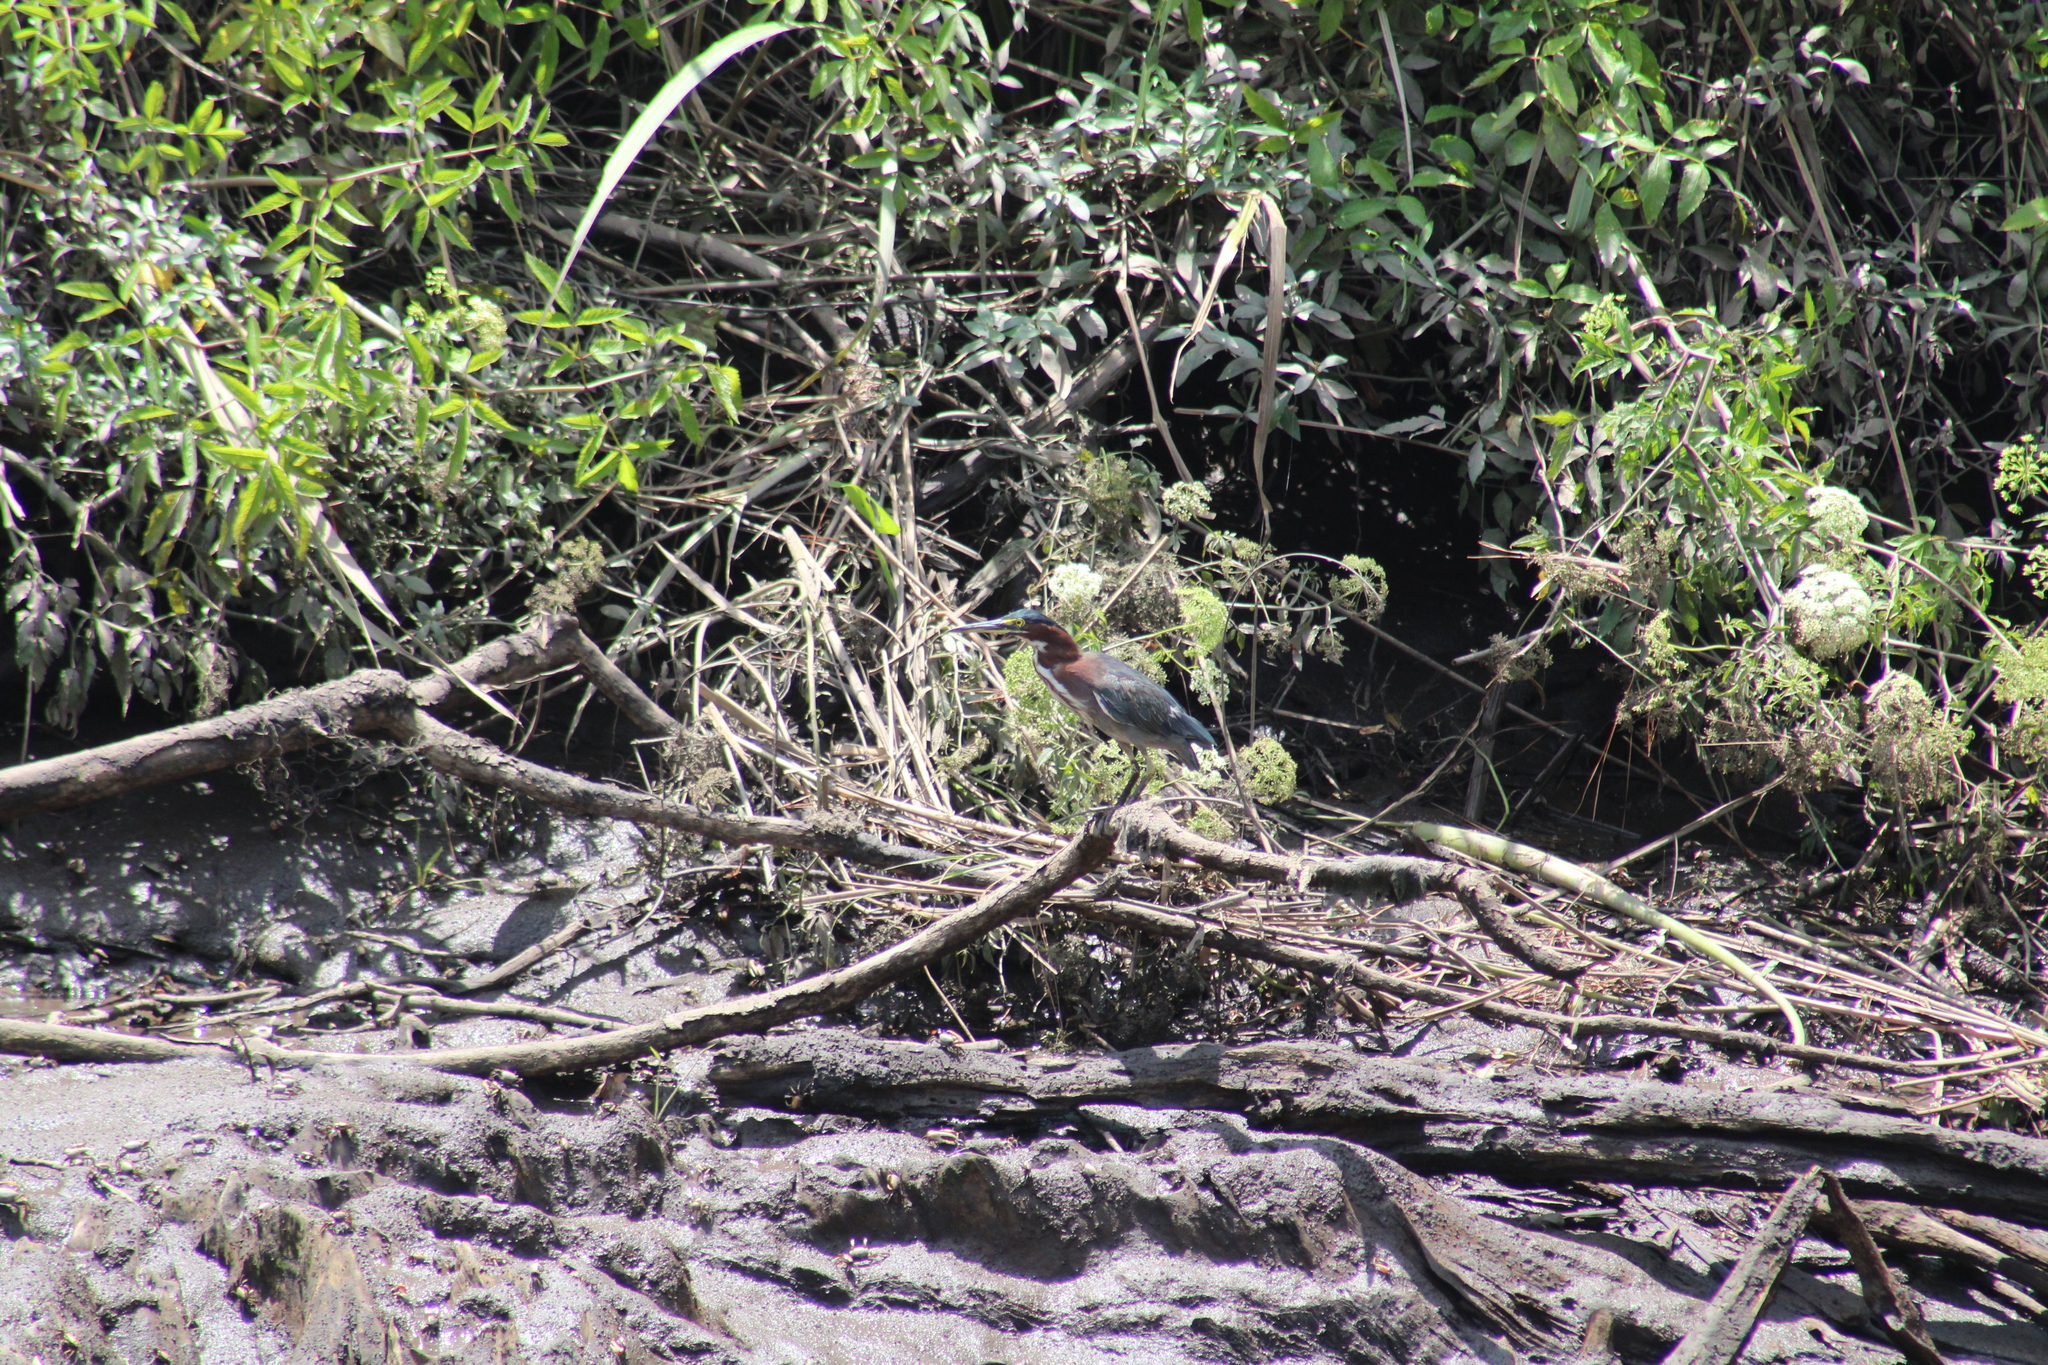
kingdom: Animalia
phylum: Chordata
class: Aves
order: Pelecaniformes
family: Ardeidae
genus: Butorides
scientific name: Butorides virescens
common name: Green heron
